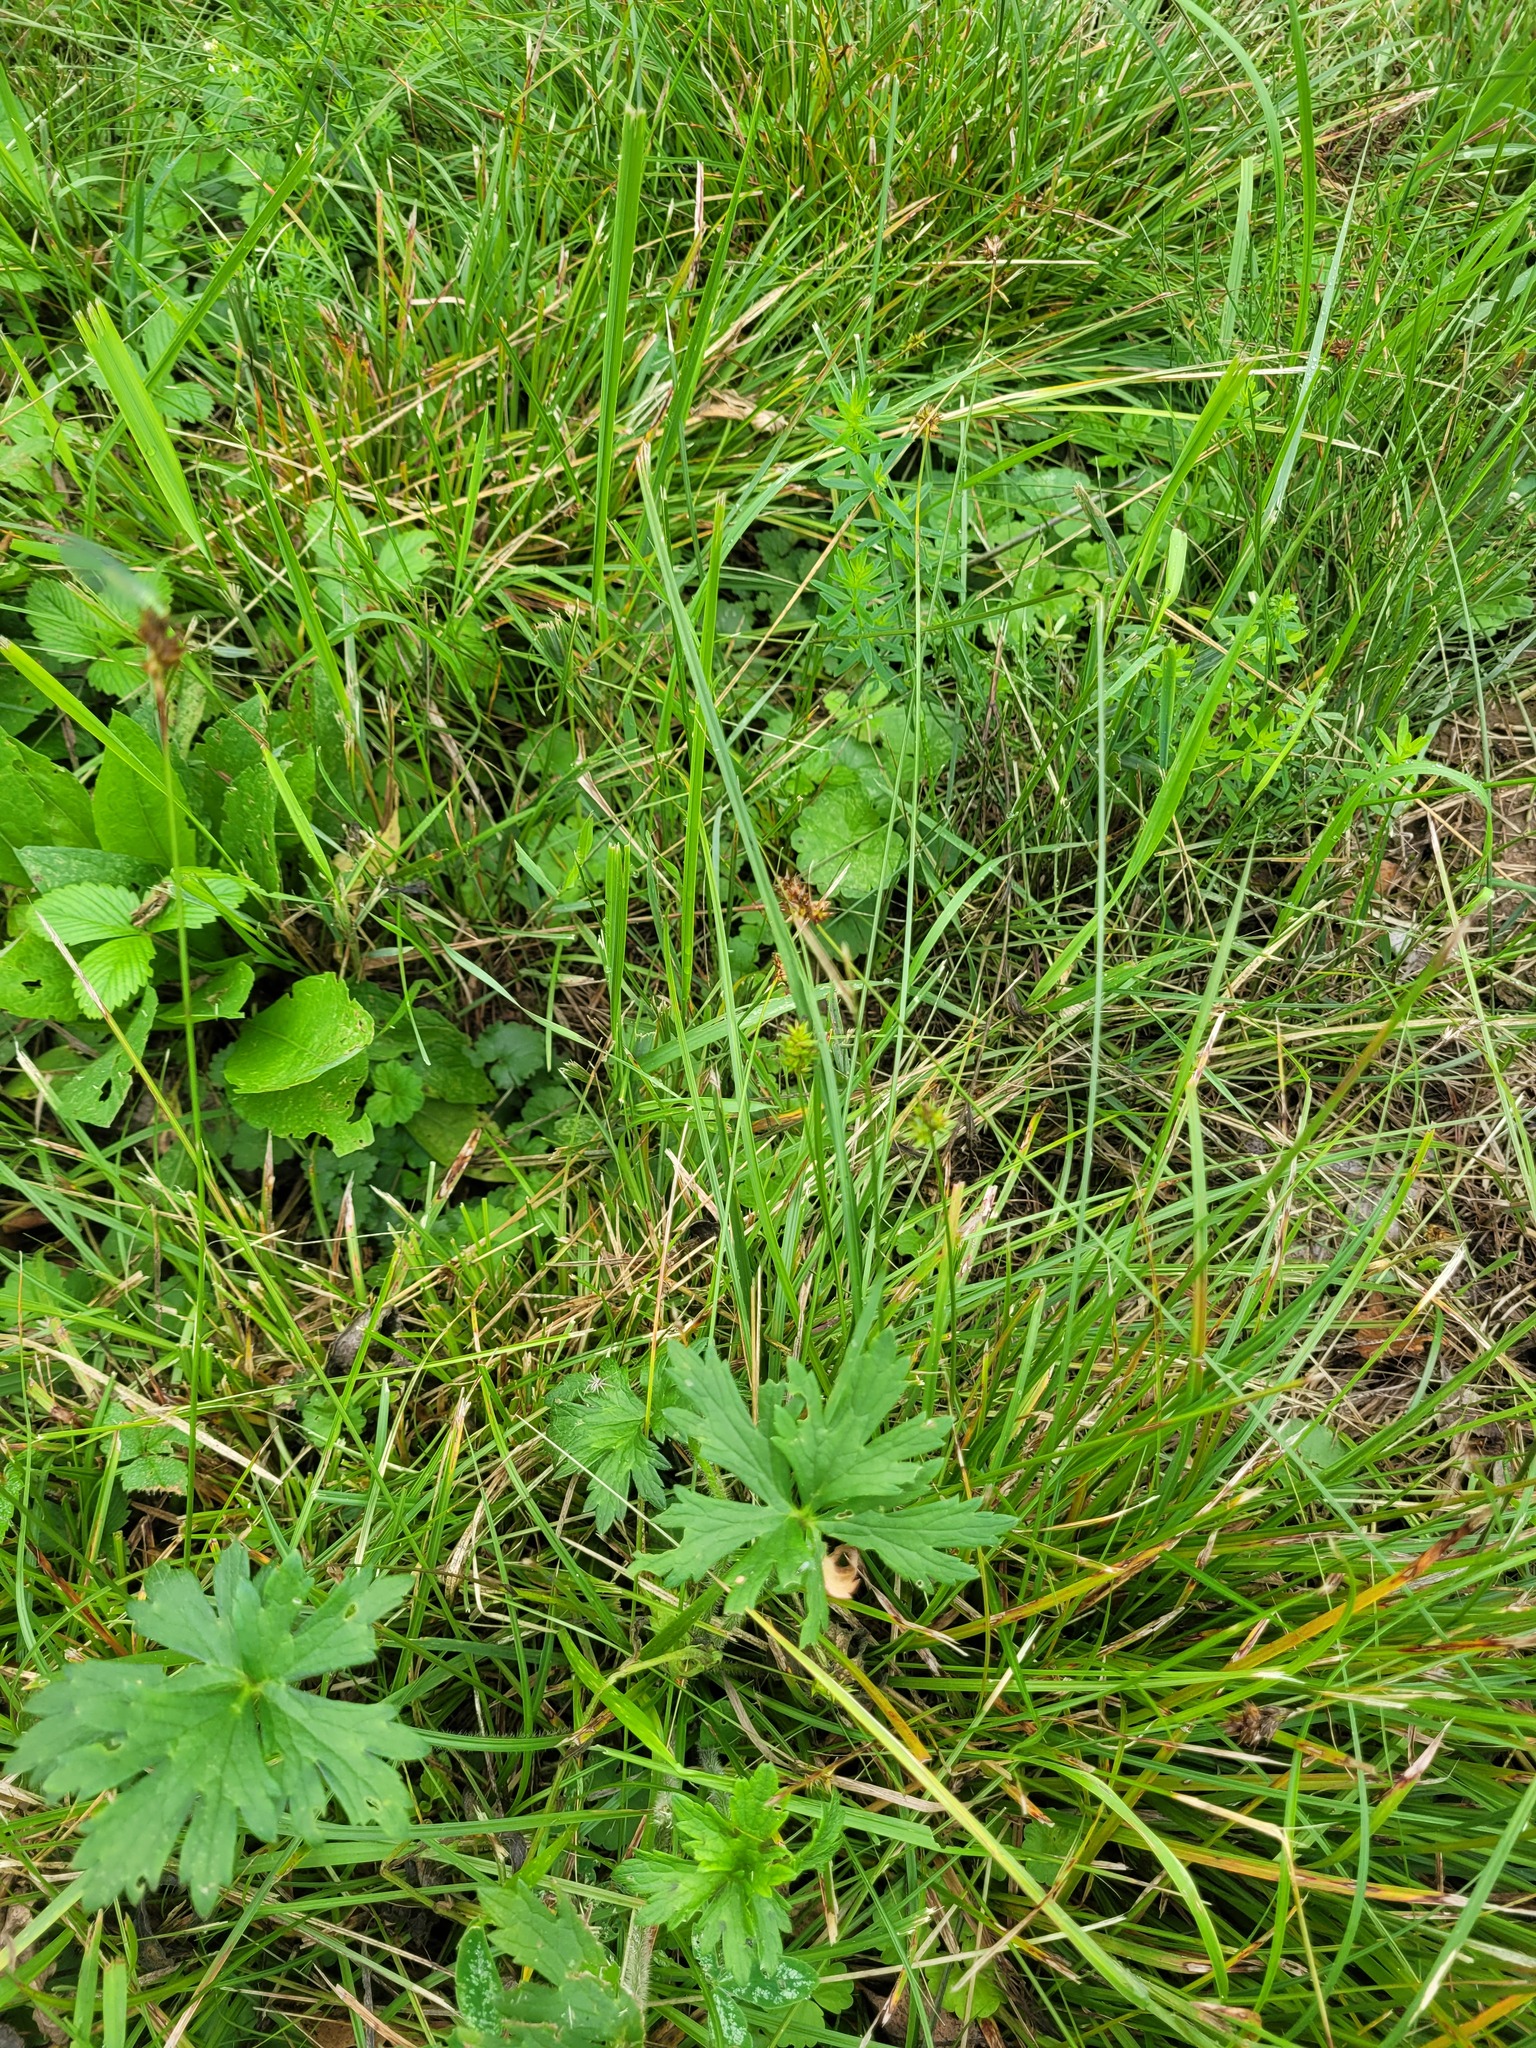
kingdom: Plantae
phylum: Tracheophyta
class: Liliopsida
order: Poales
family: Cyperaceae
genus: Carex
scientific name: Carex spicata
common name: Spiked sedge
